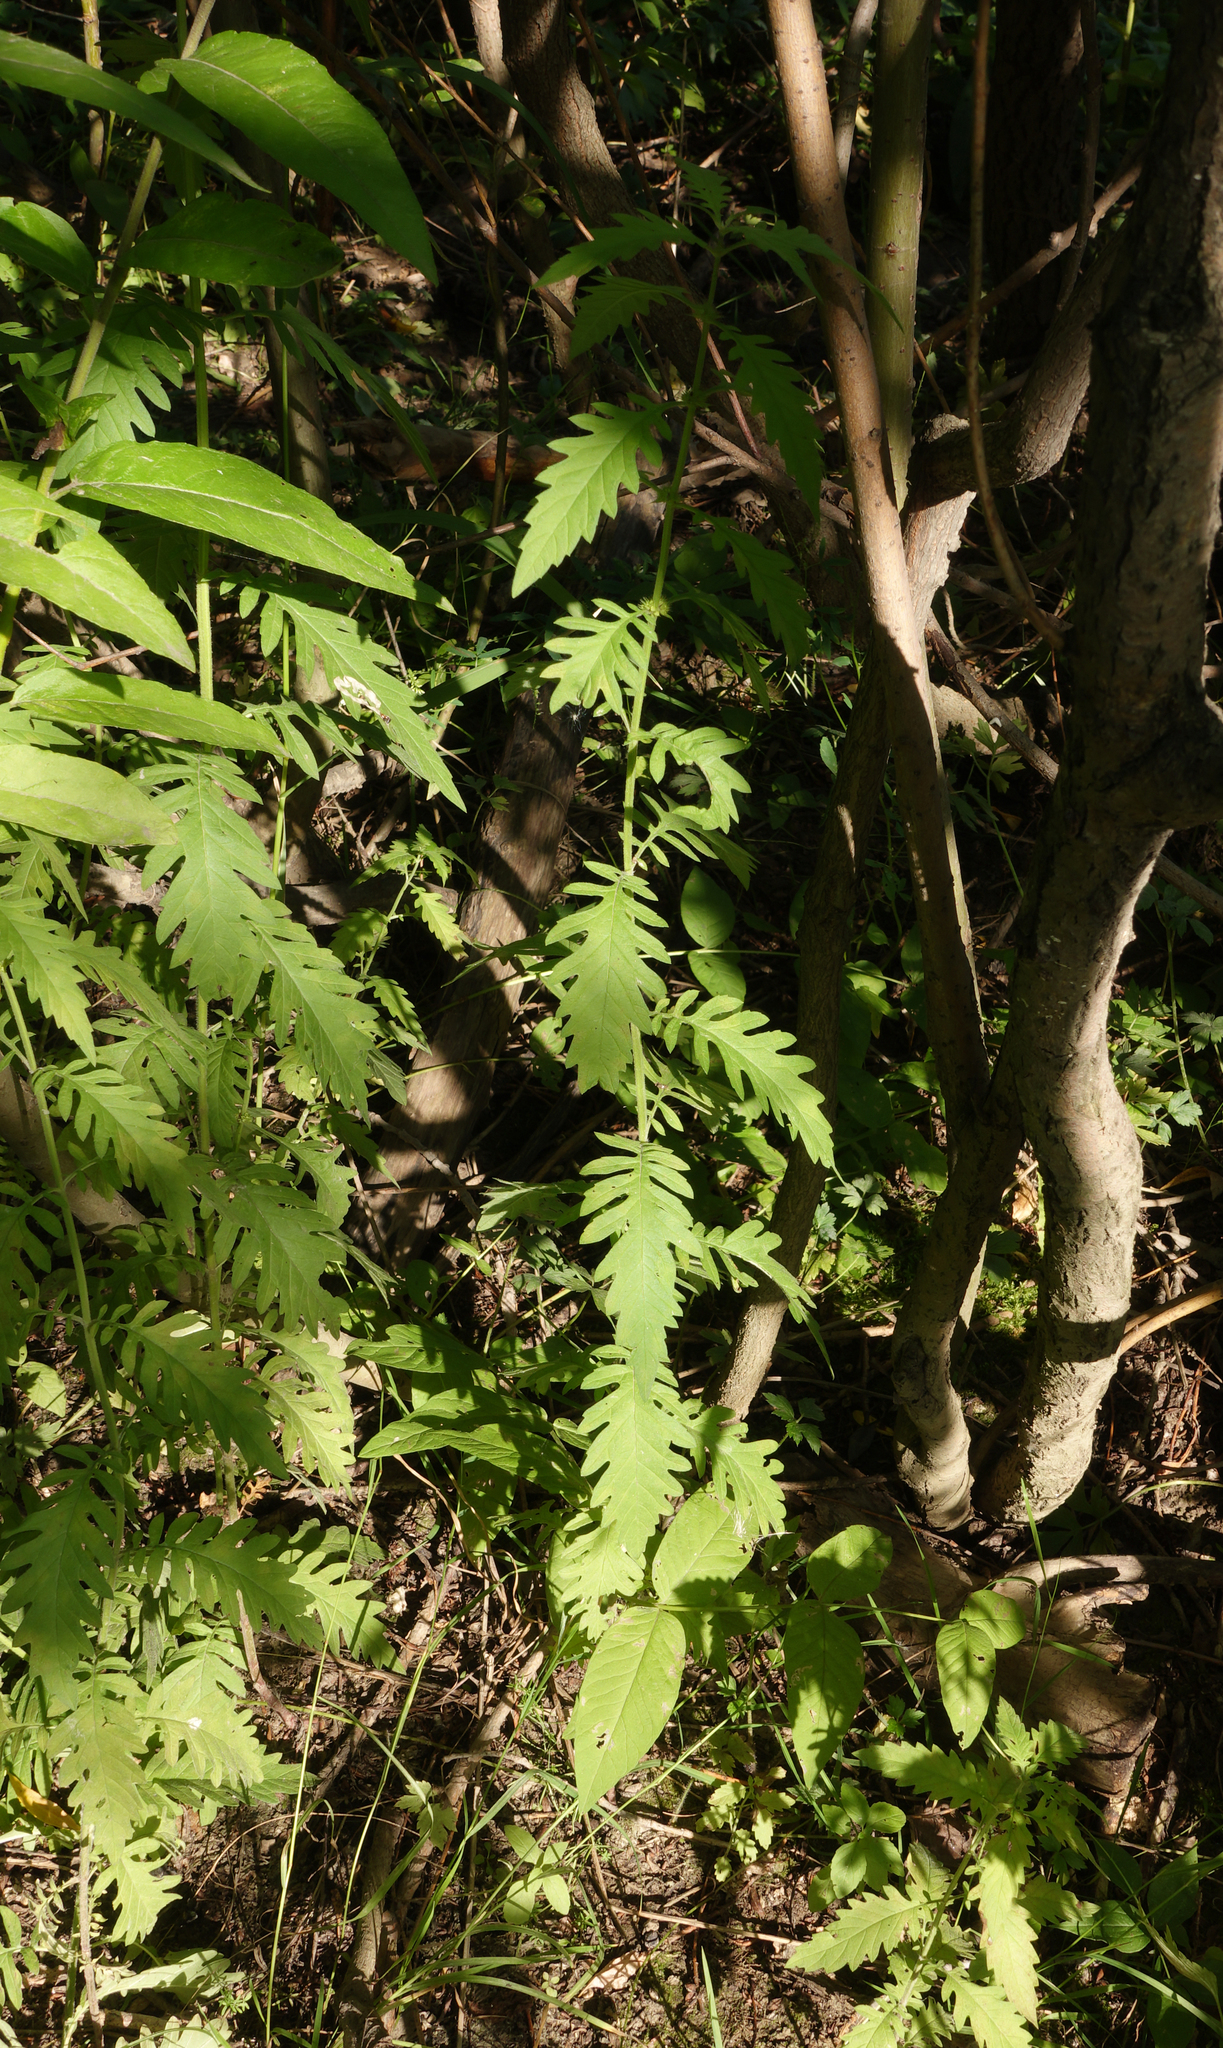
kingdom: Plantae
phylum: Tracheophyta
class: Magnoliopsida
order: Lamiales
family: Lamiaceae
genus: Lycopus
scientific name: Lycopus exaltatus
